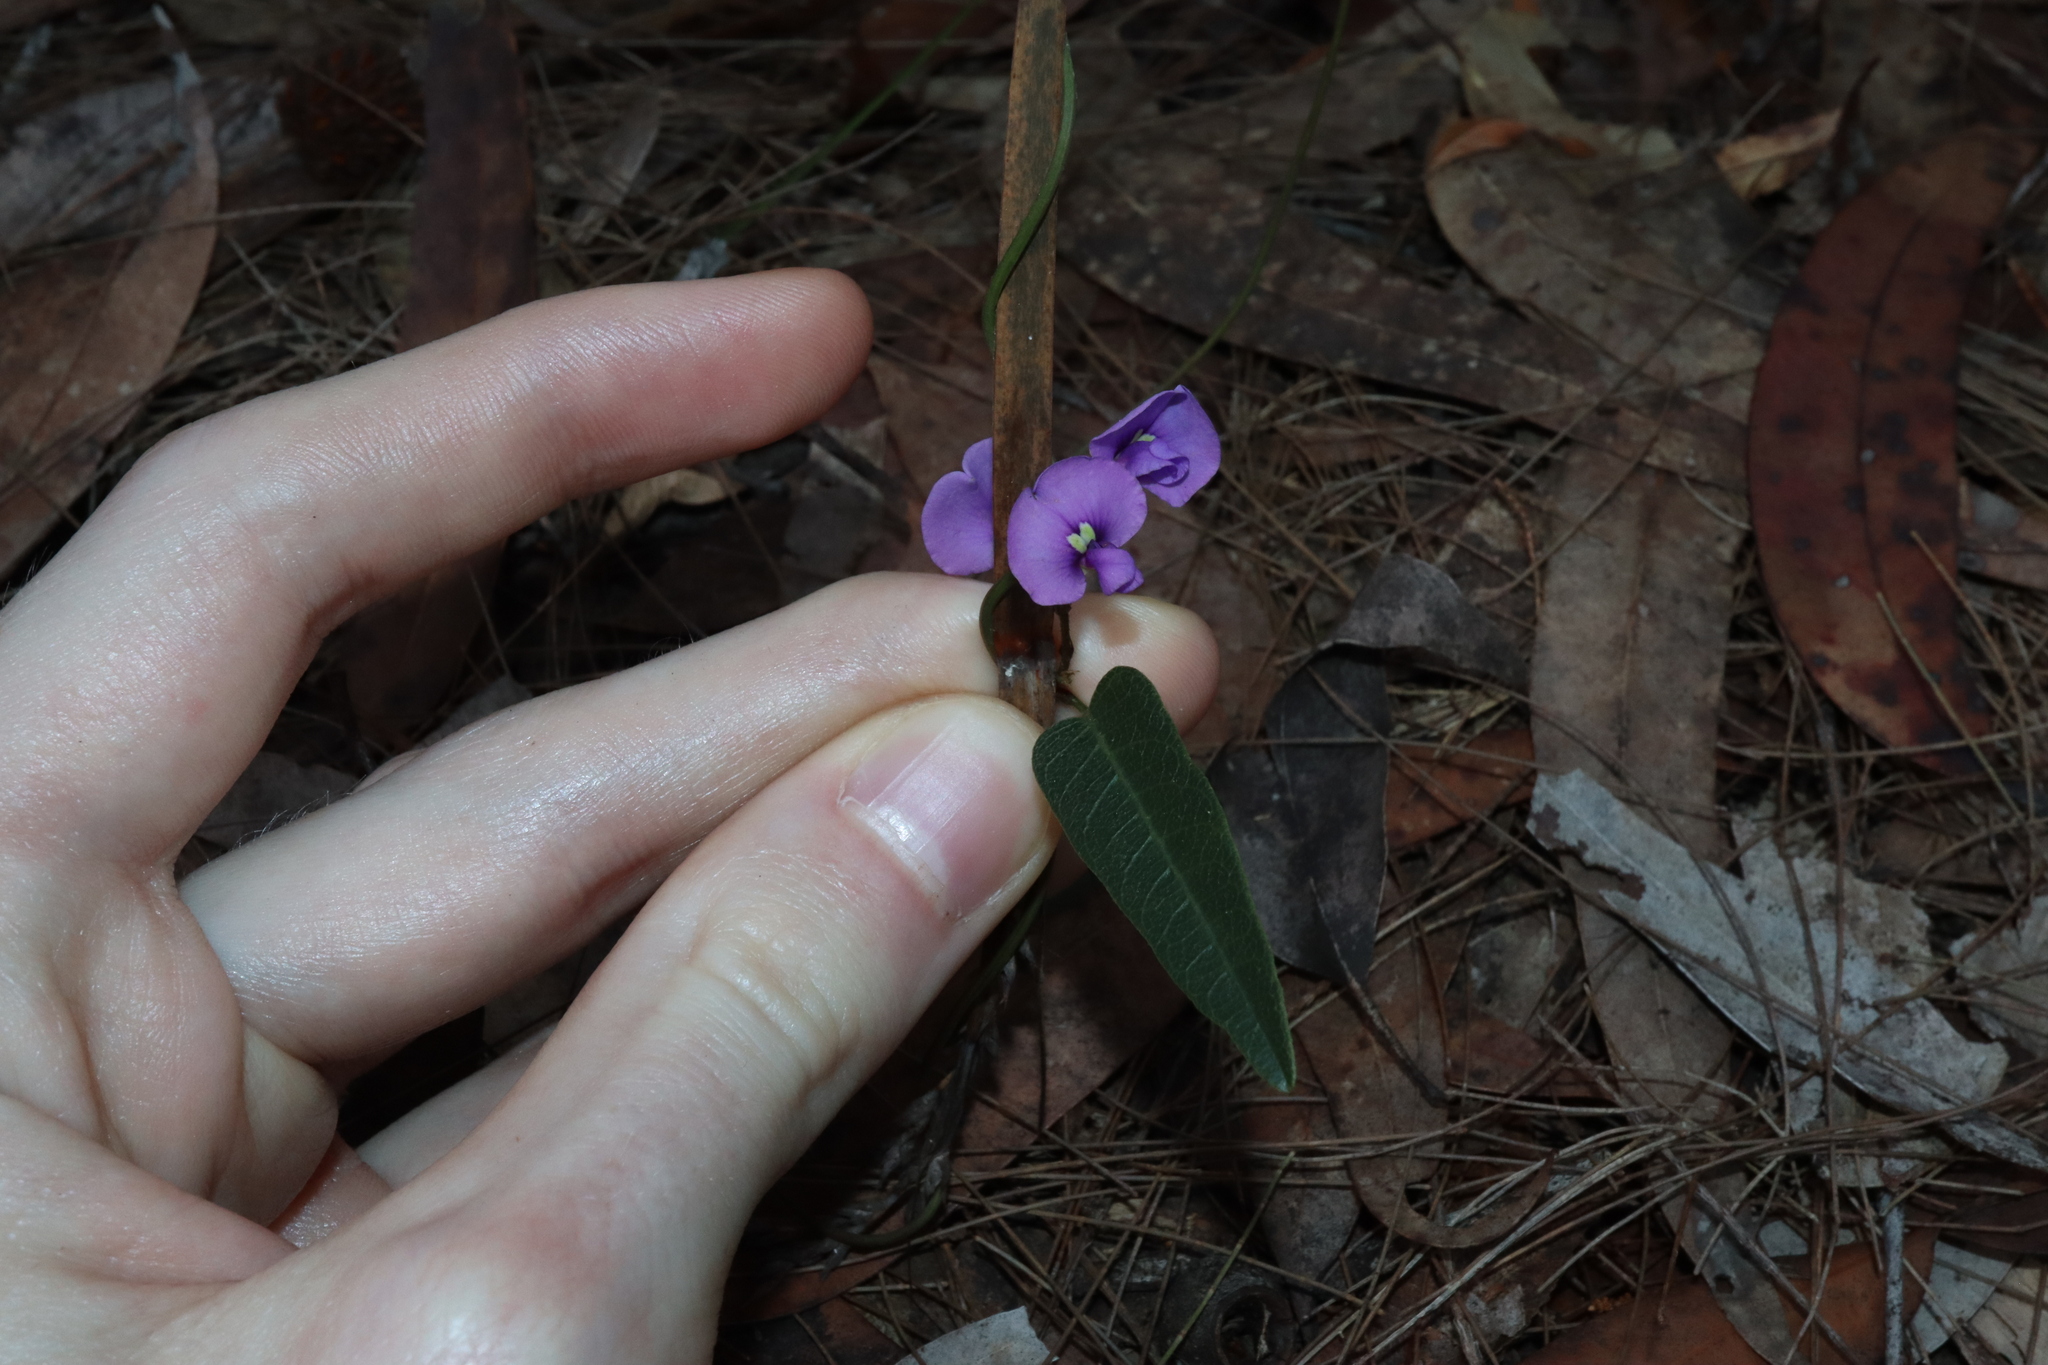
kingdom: Plantae
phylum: Tracheophyta
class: Magnoliopsida
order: Fabales
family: Fabaceae
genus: Hardenbergia
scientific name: Hardenbergia violacea
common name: Coral-pea
